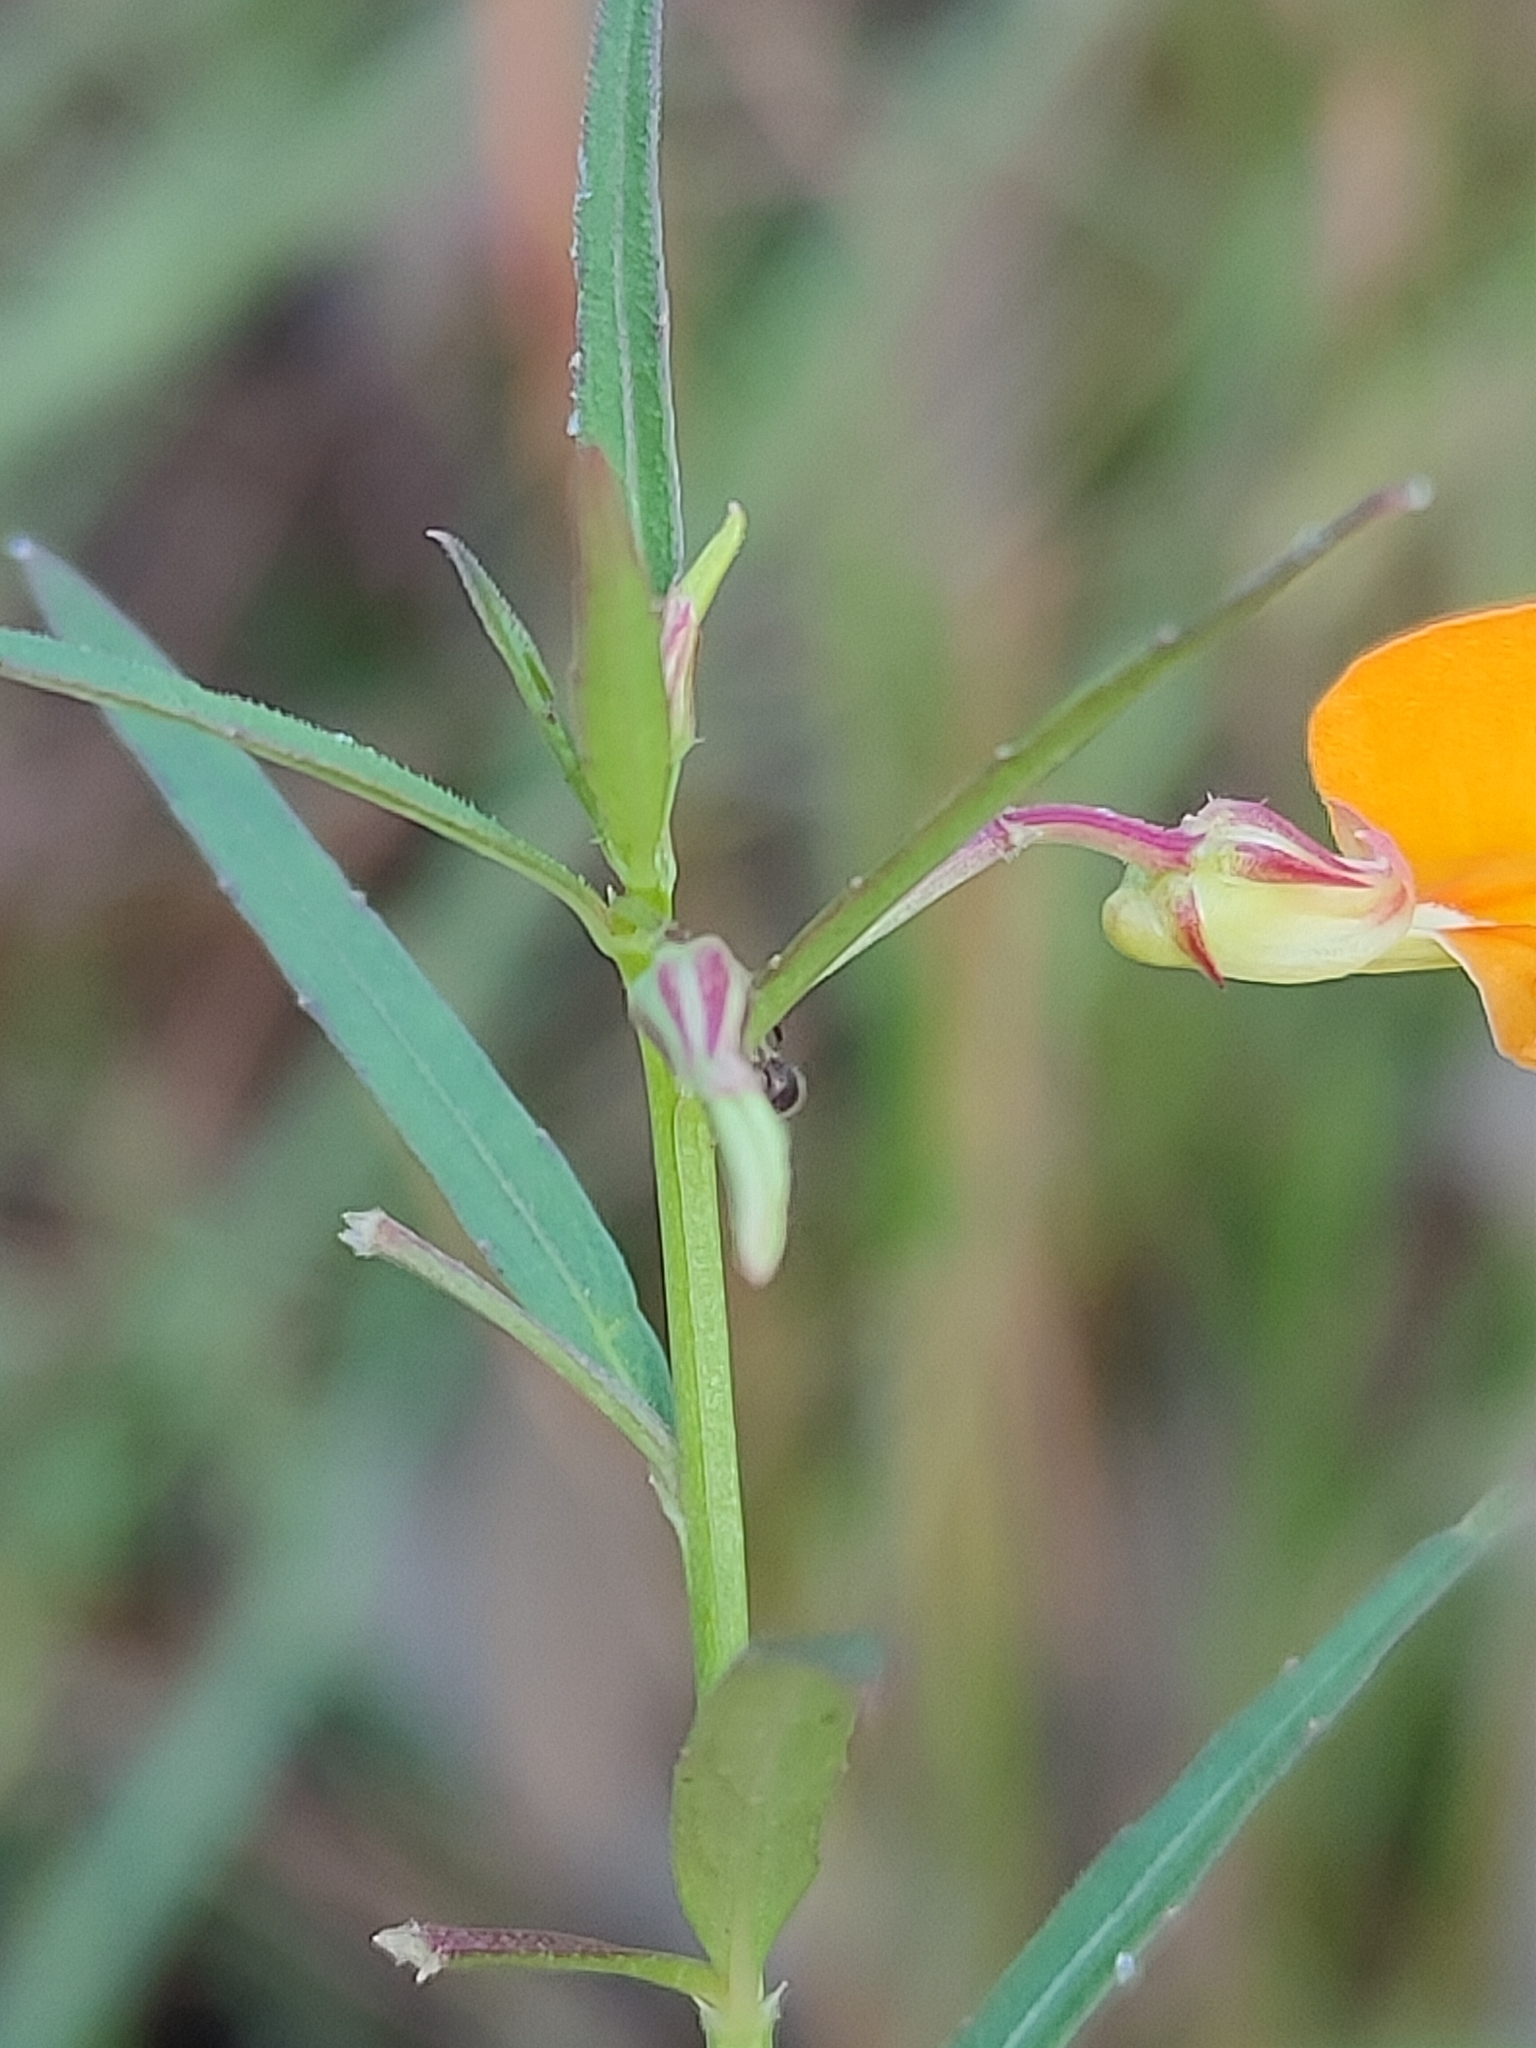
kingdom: Plantae
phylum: Tracheophyta
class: Magnoliopsida
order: Malpighiales
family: Violaceae
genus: Pigea
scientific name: Pigea stellarioides
